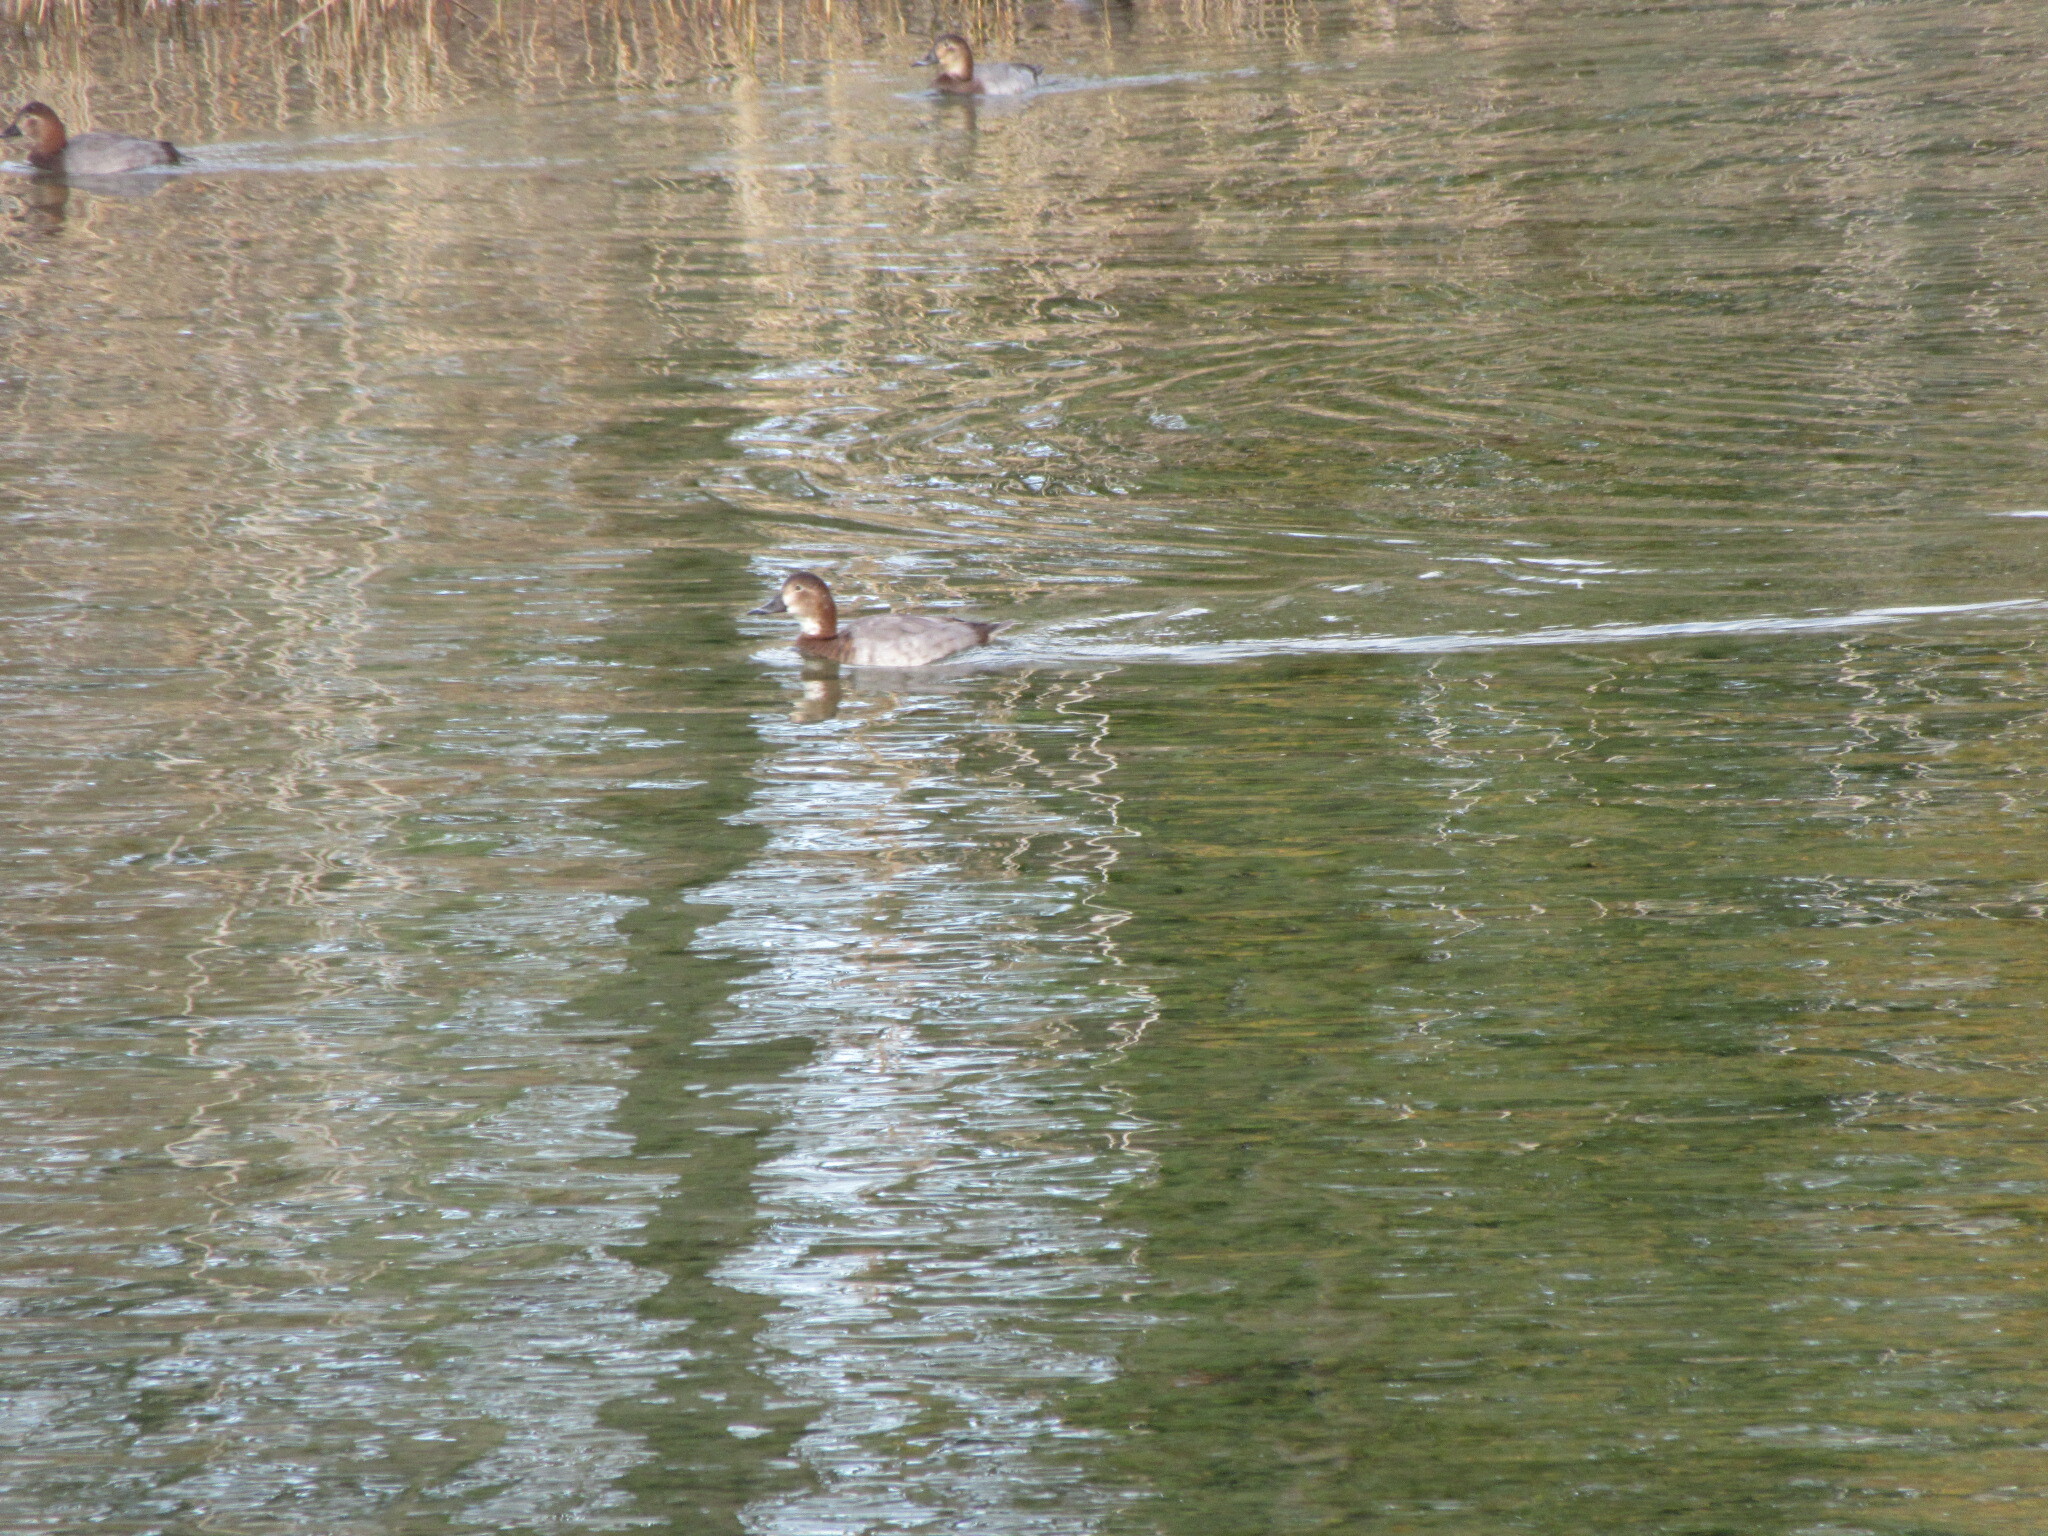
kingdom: Animalia
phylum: Chordata
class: Aves
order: Anseriformes
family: Anatidae
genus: Aythya
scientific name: Aythya ferina
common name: Common pochard
